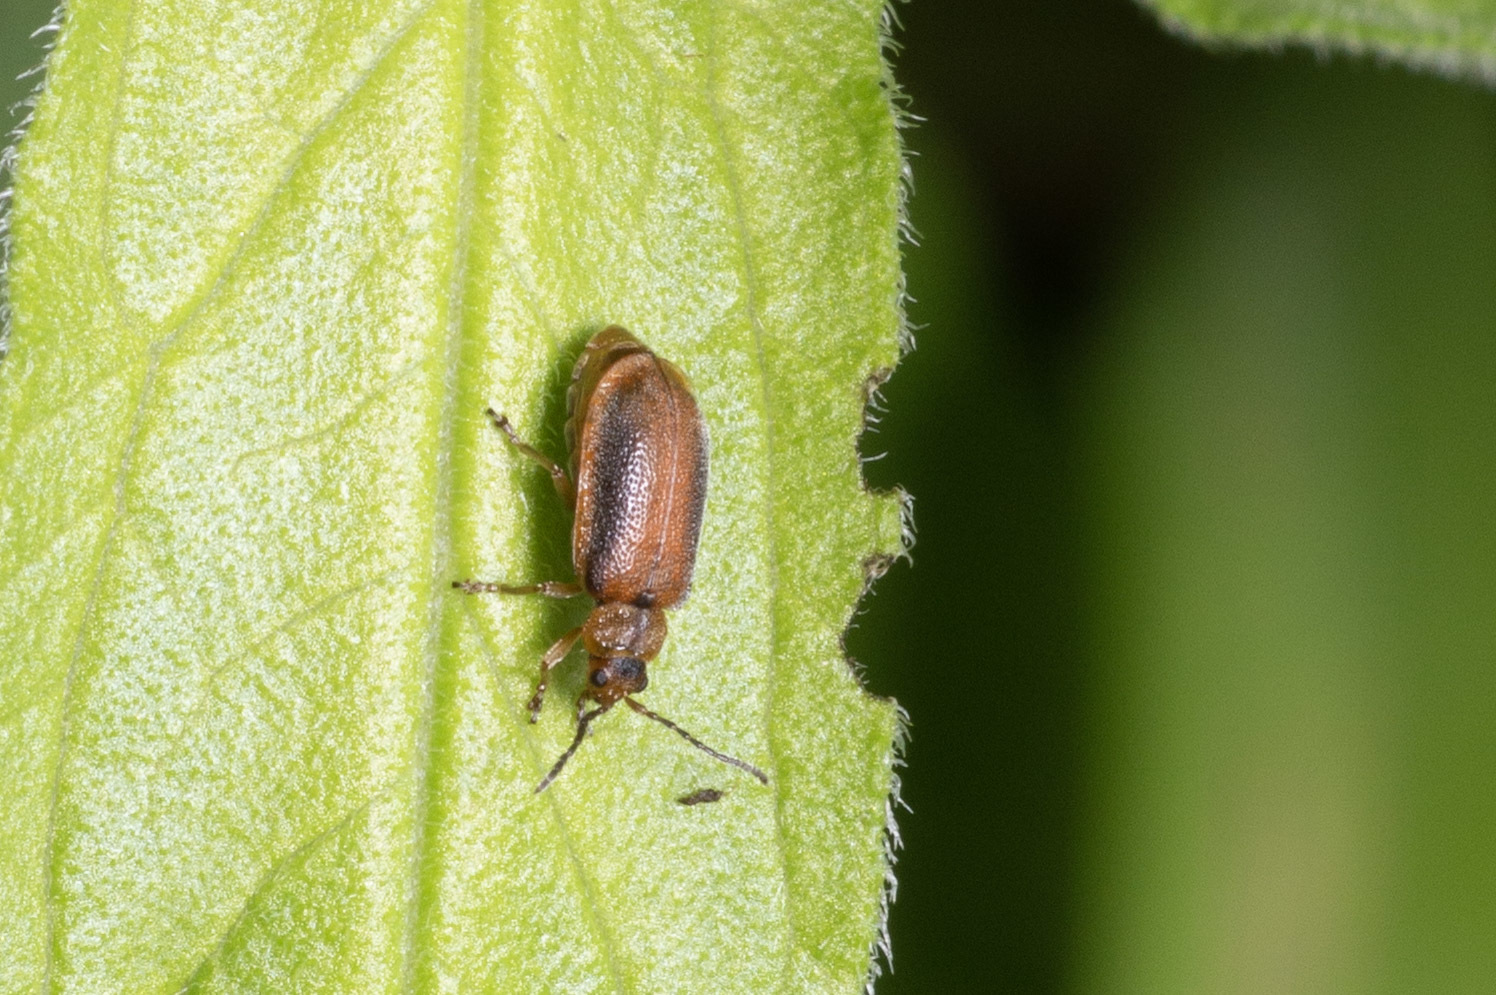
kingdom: Animalia
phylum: Arthropoda
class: Insecta
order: Coleoptera
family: Chrysomelidae
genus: Neogalerucella
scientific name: Neogalerucella calmariensis
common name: Black-margined loosestrife beetle
